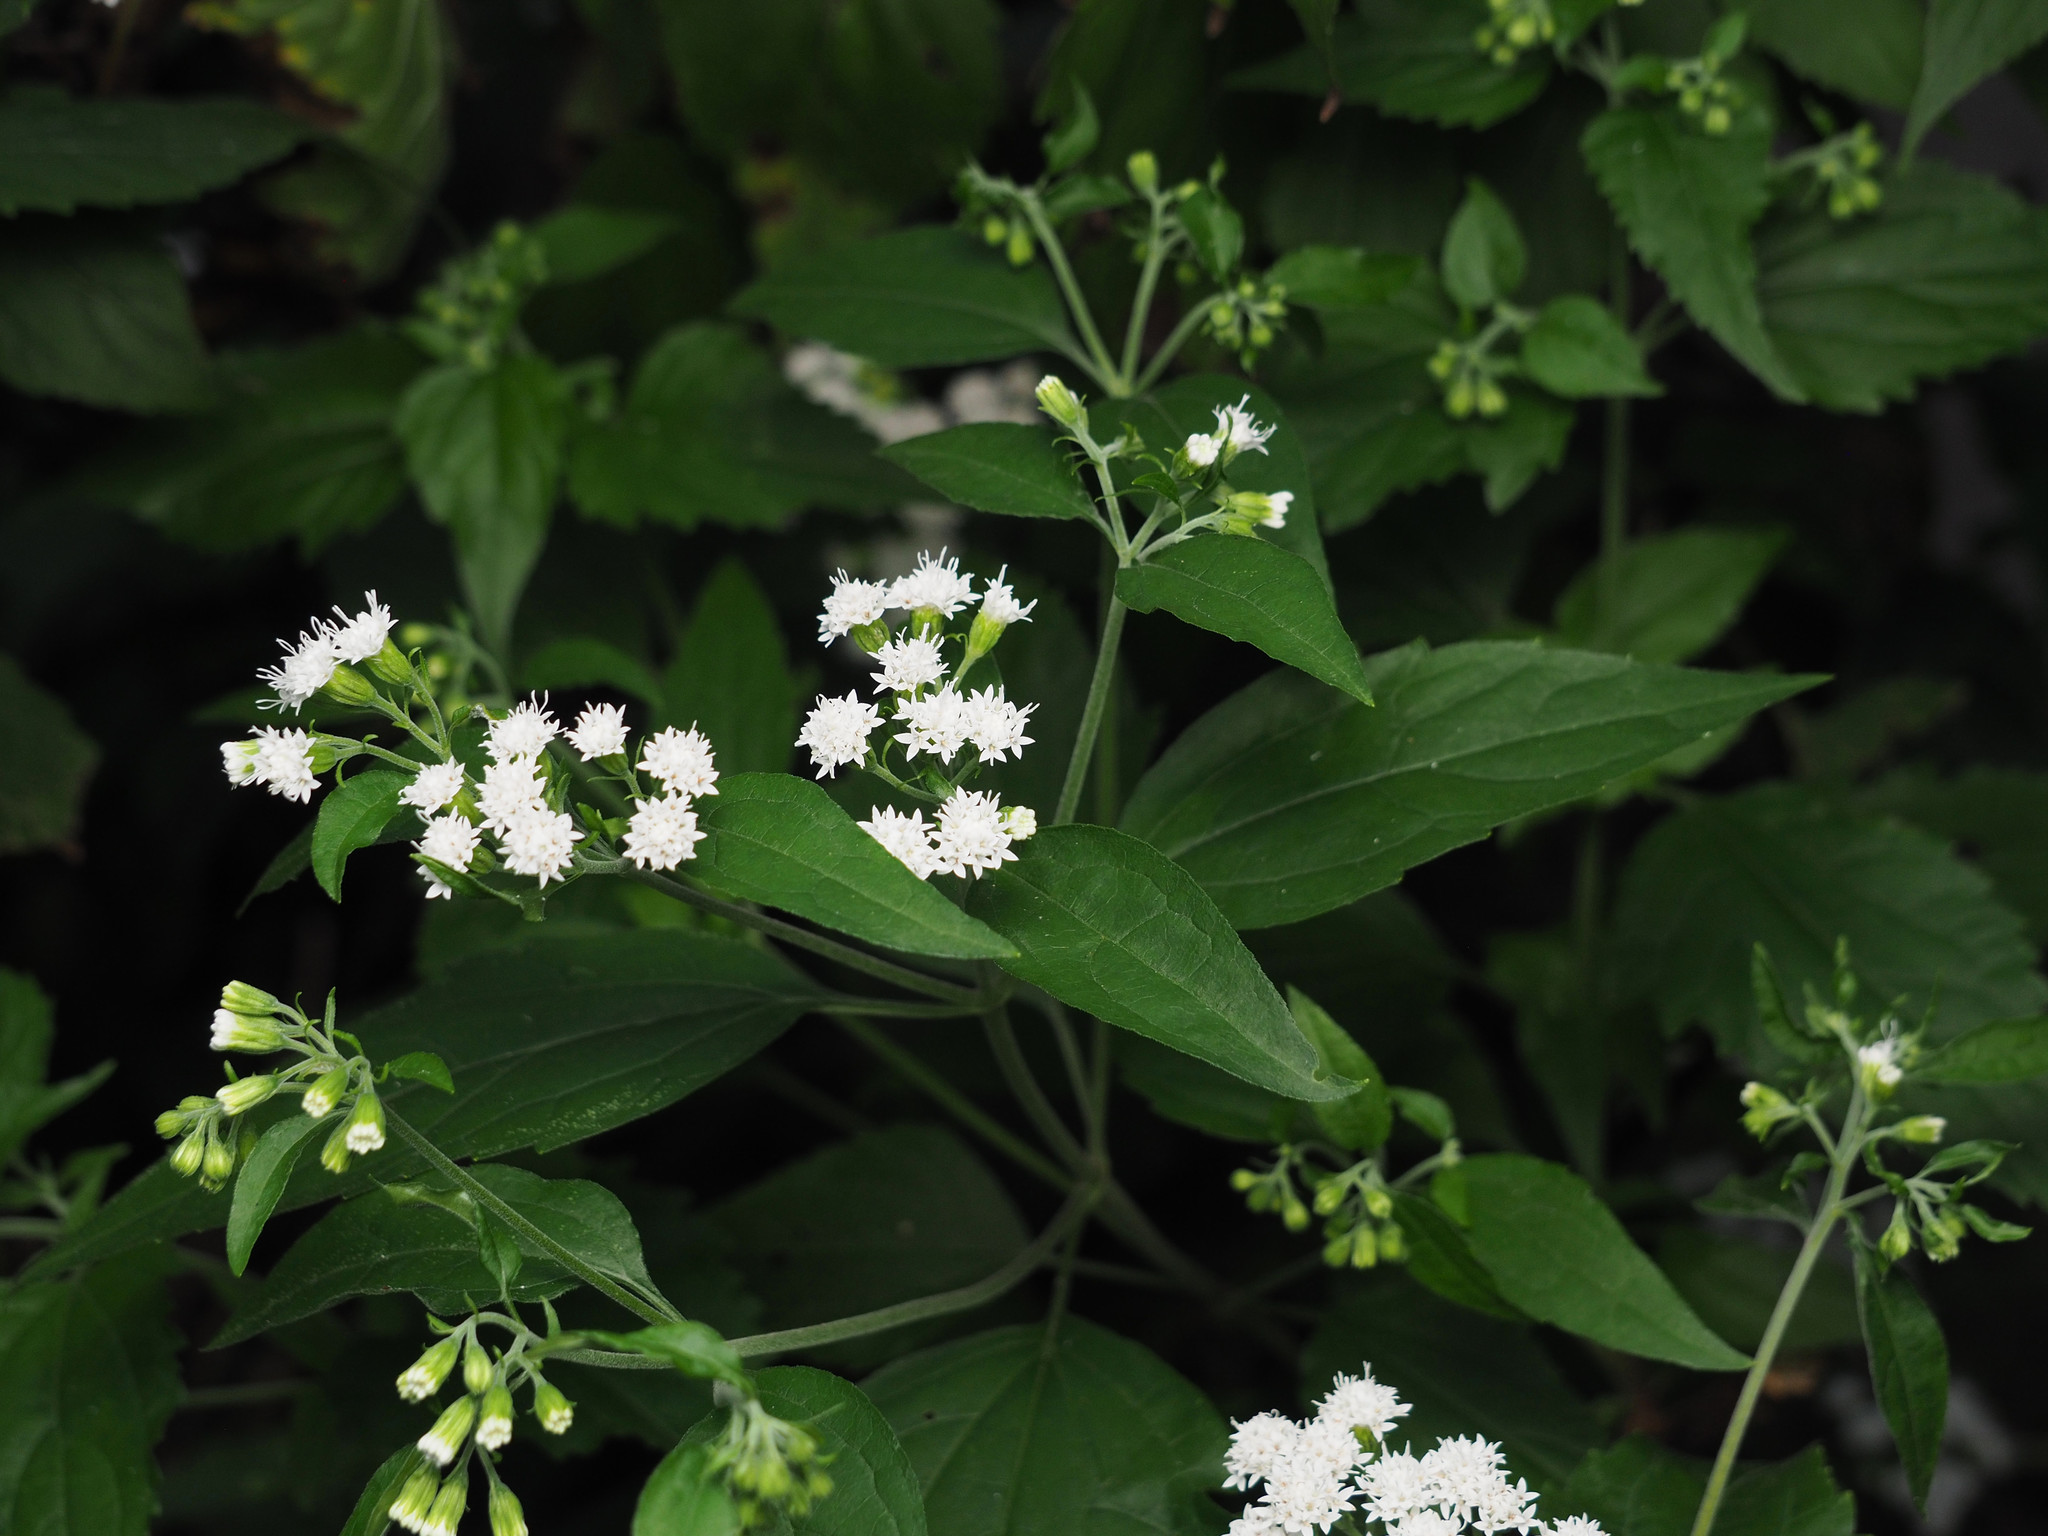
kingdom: Plantae
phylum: Tracheophyta
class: Magnoliopsida
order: Asterales
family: Asteraceae
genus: Ageratina
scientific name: Ageratina altissima
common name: White snakeroot
